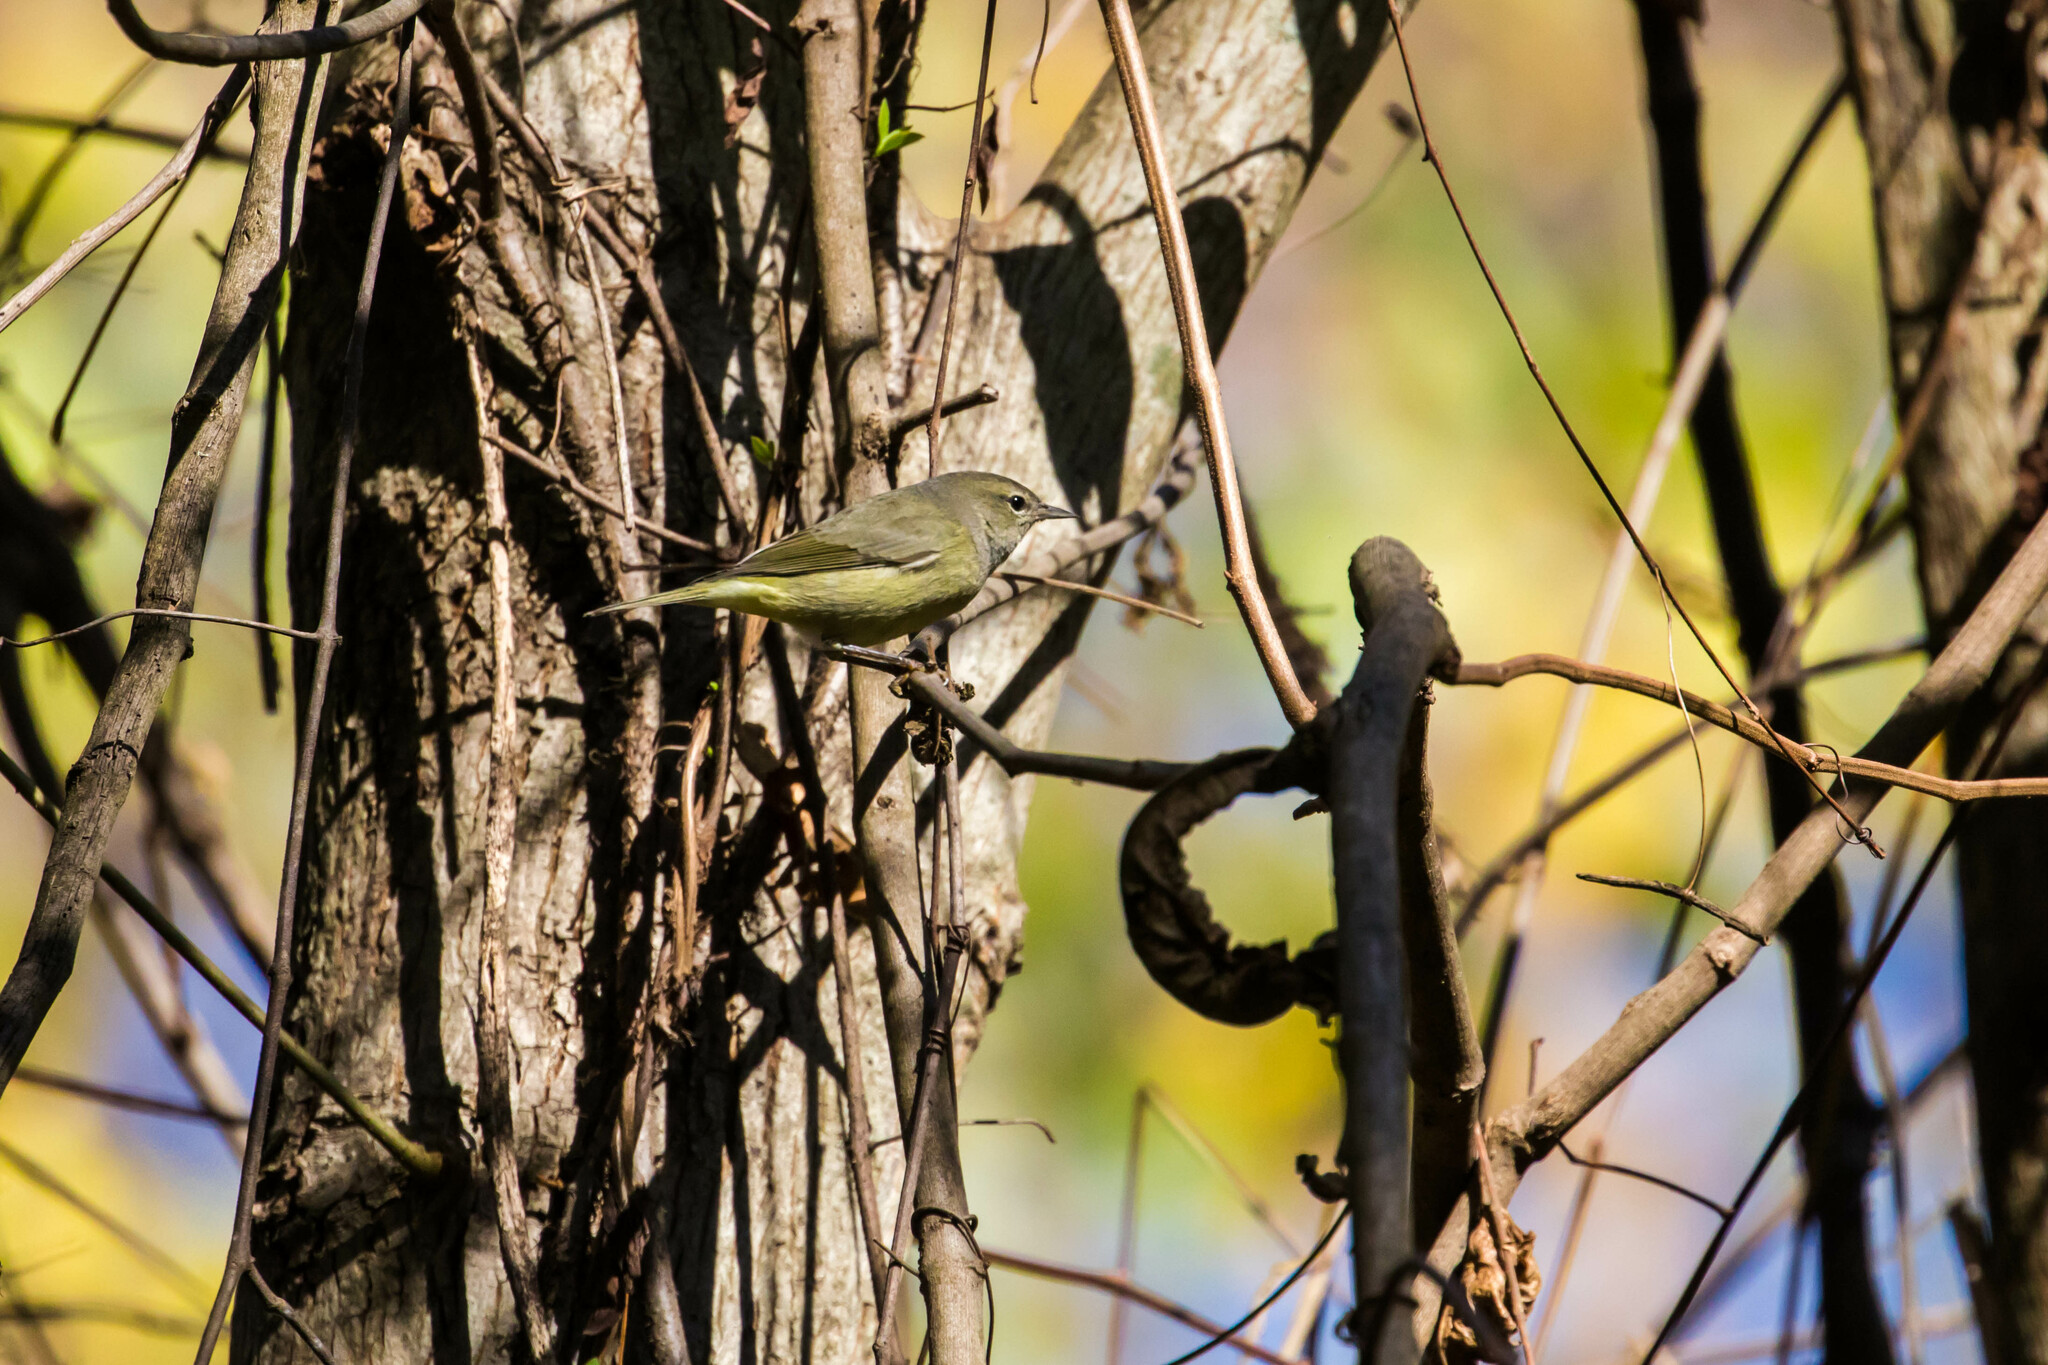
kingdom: Animalia
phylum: Chordata
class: Aves
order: Passeriformes
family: Parulidae
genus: Leiothlypis
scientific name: Leiothlypis celata
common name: Orange-crowned warbler
